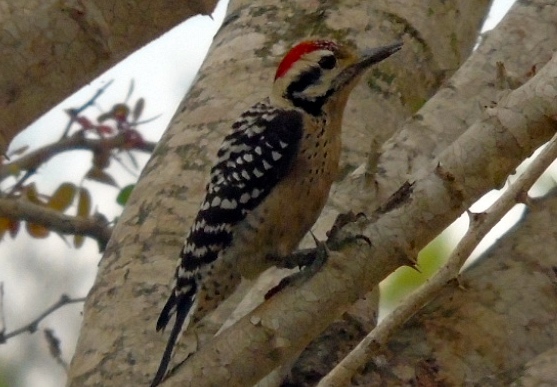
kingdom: Animalia
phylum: Chordata
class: Aves
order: Piciformes
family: Picidae
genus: Dryobates
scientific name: Dryobates scalaris
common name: Ladder-backed woodpecker
